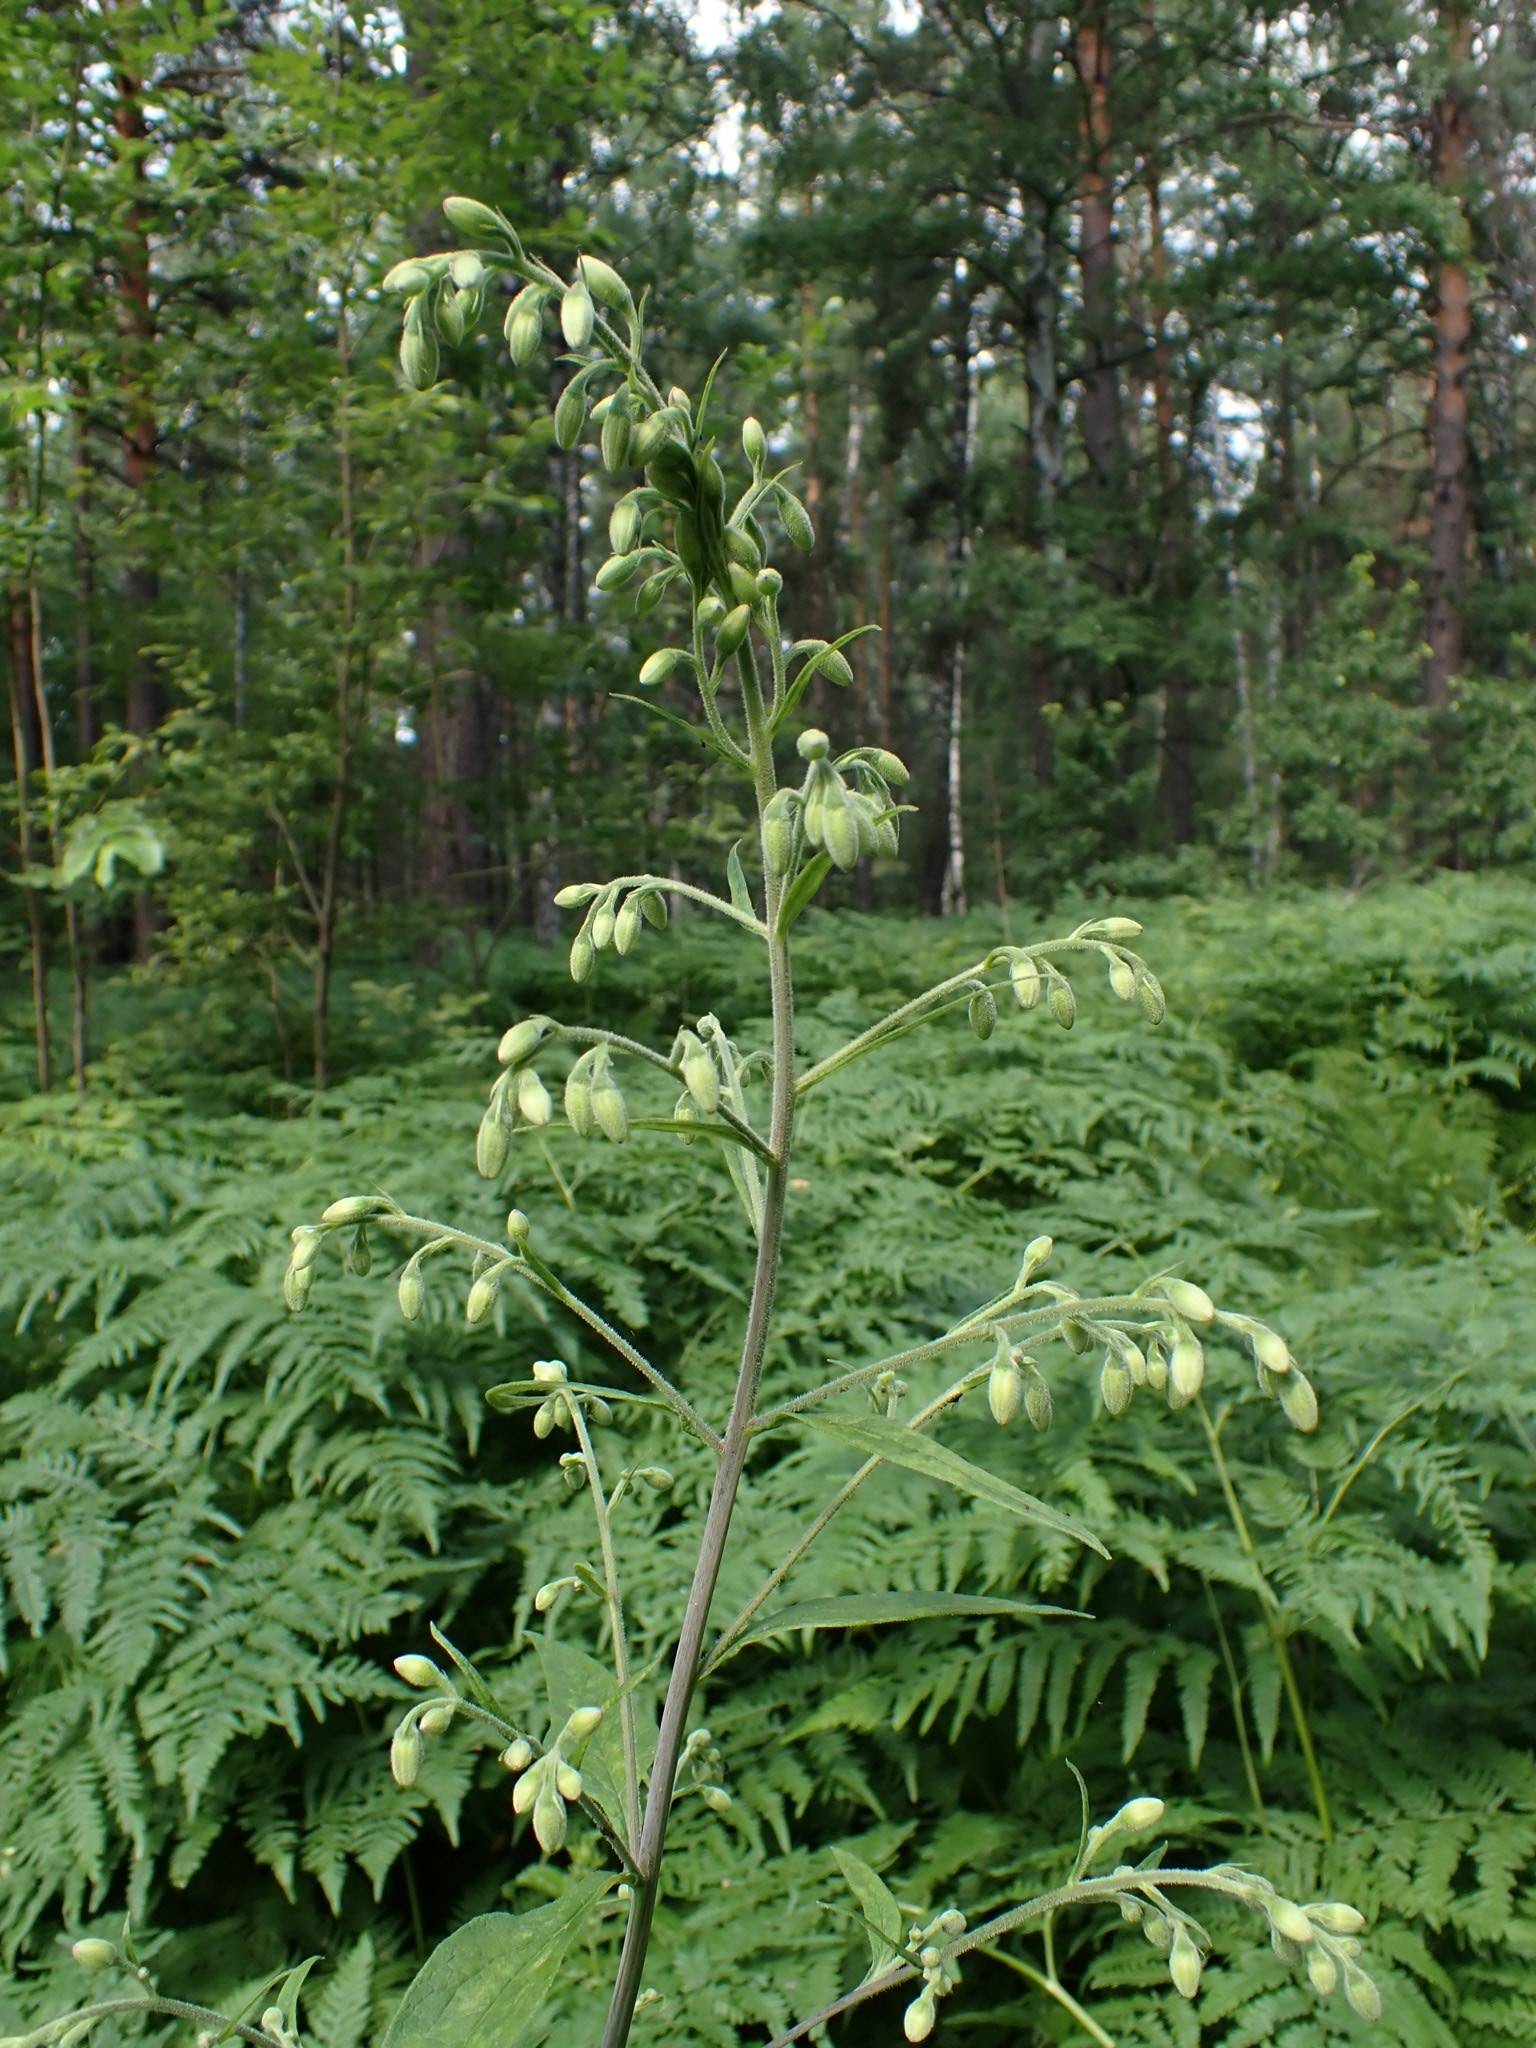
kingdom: Plantae
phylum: Tracheophyta
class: Magnoliopsida
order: Asterales
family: Asteraceae
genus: Parasenecio
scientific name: Parasenecio hastatus
